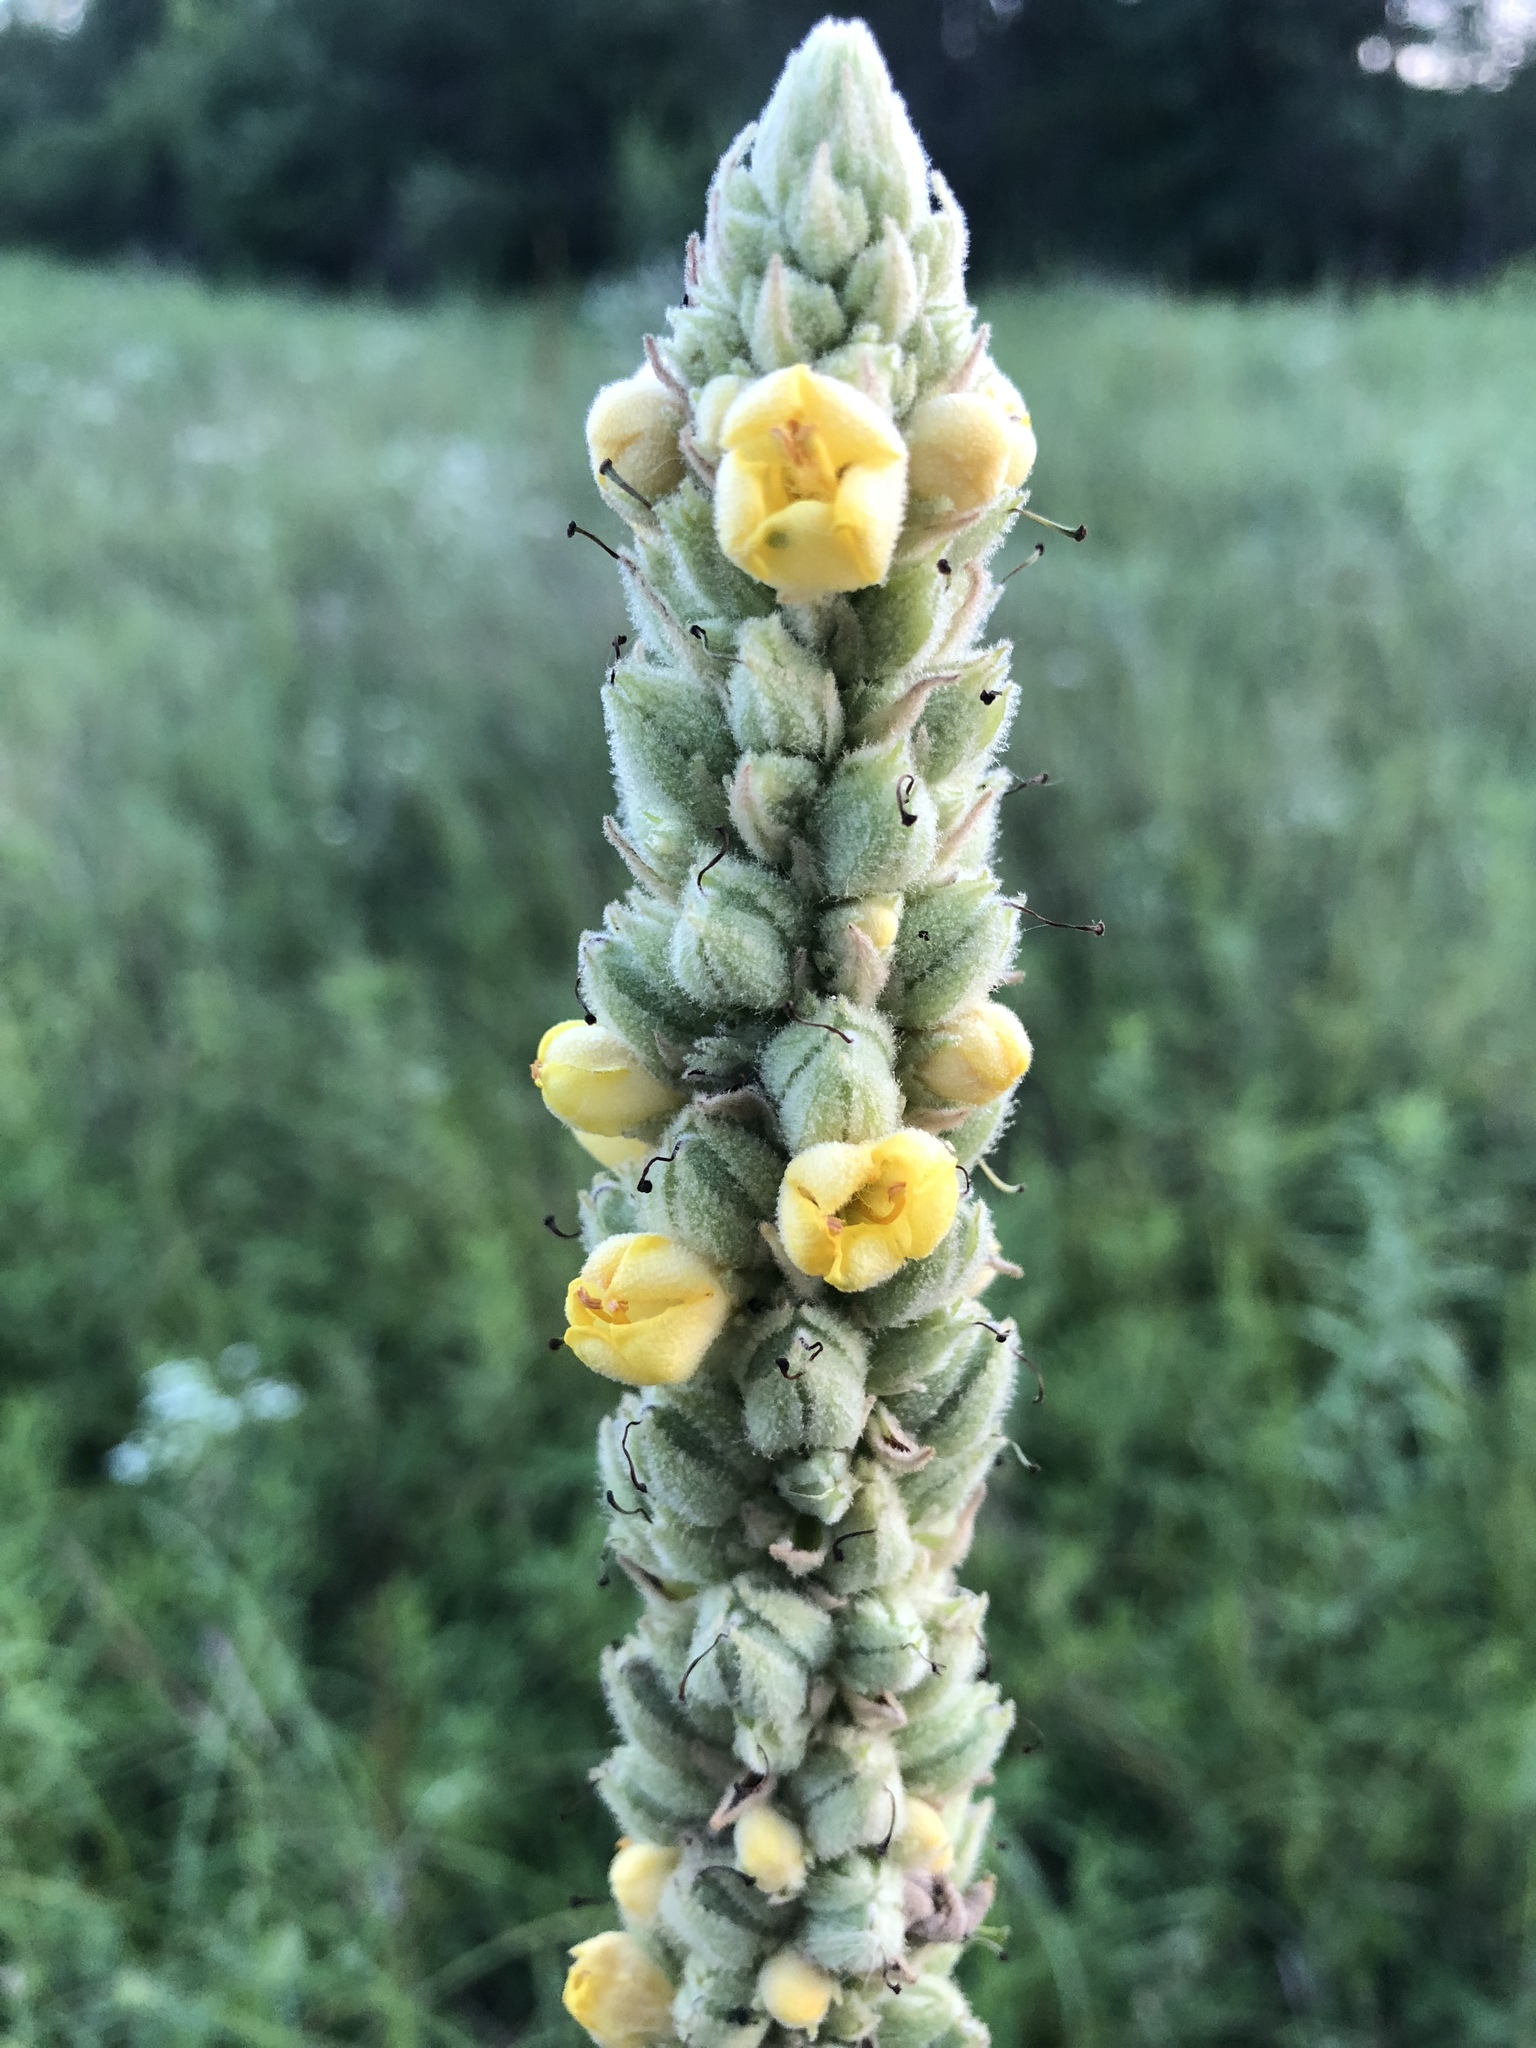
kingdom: Plantae
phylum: Tracheophyta
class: Magnoliopsida
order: Lamiales
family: Scrophulariaceae
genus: Verbascum
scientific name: Verbascum thapsus
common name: Common mullein
